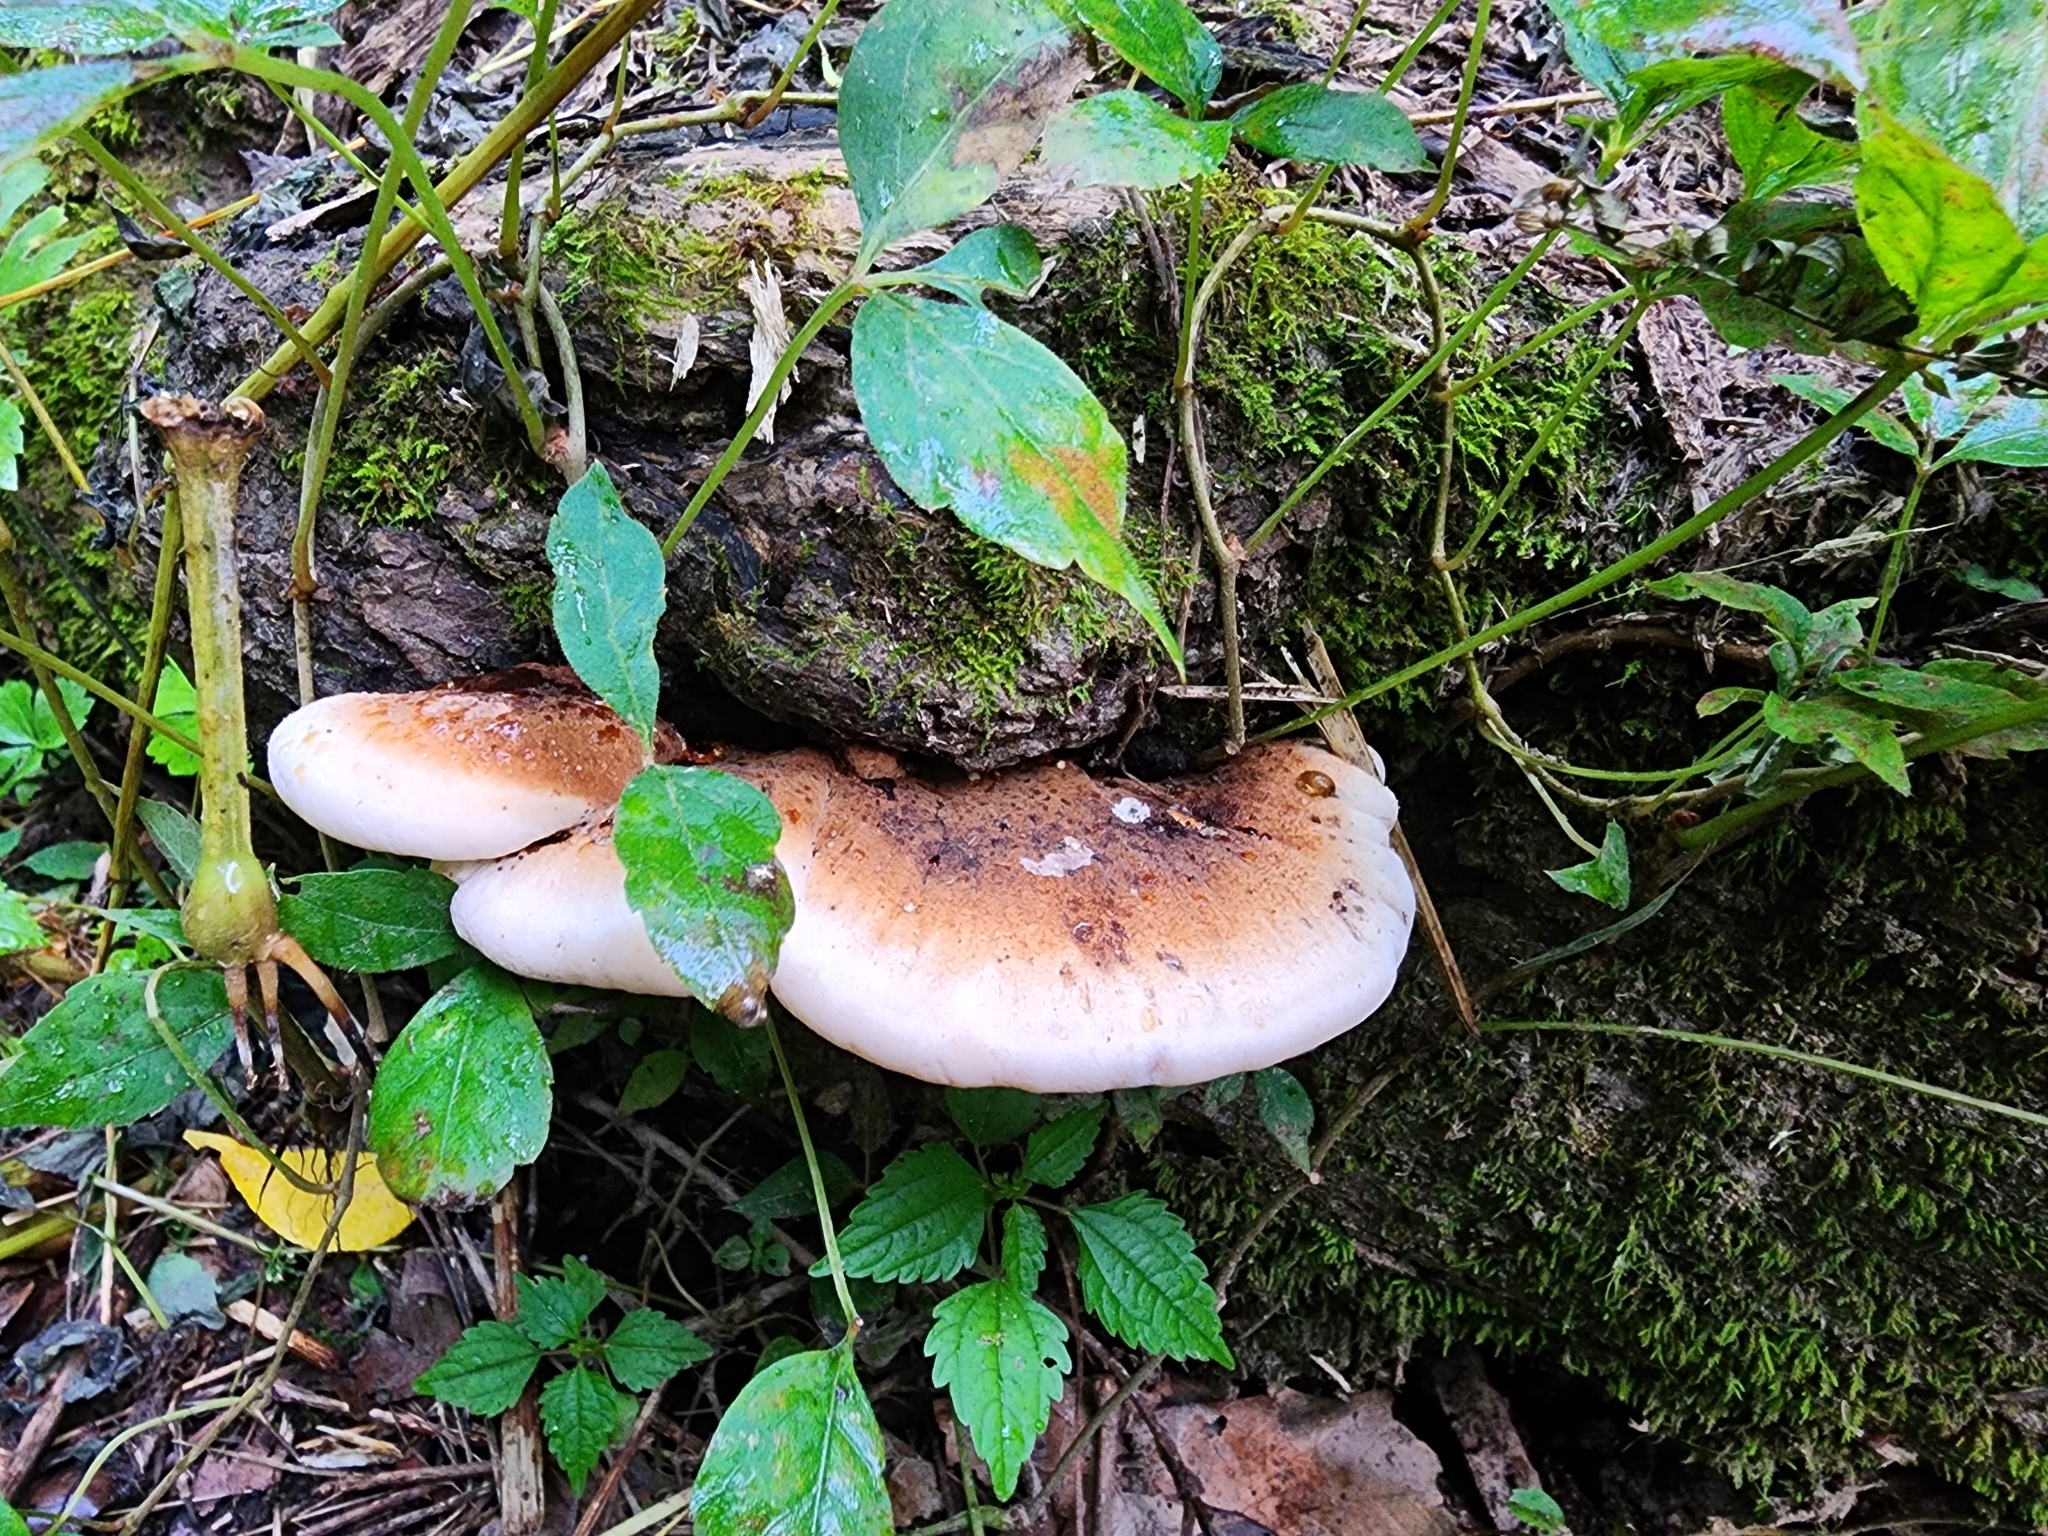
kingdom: Fungi
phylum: Basidiomycota
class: Agaricomycetes
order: Polyporales
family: Ischnodermataceae
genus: Ischnoderma
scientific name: Ischnoderma resinosum
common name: Resinous polypore
